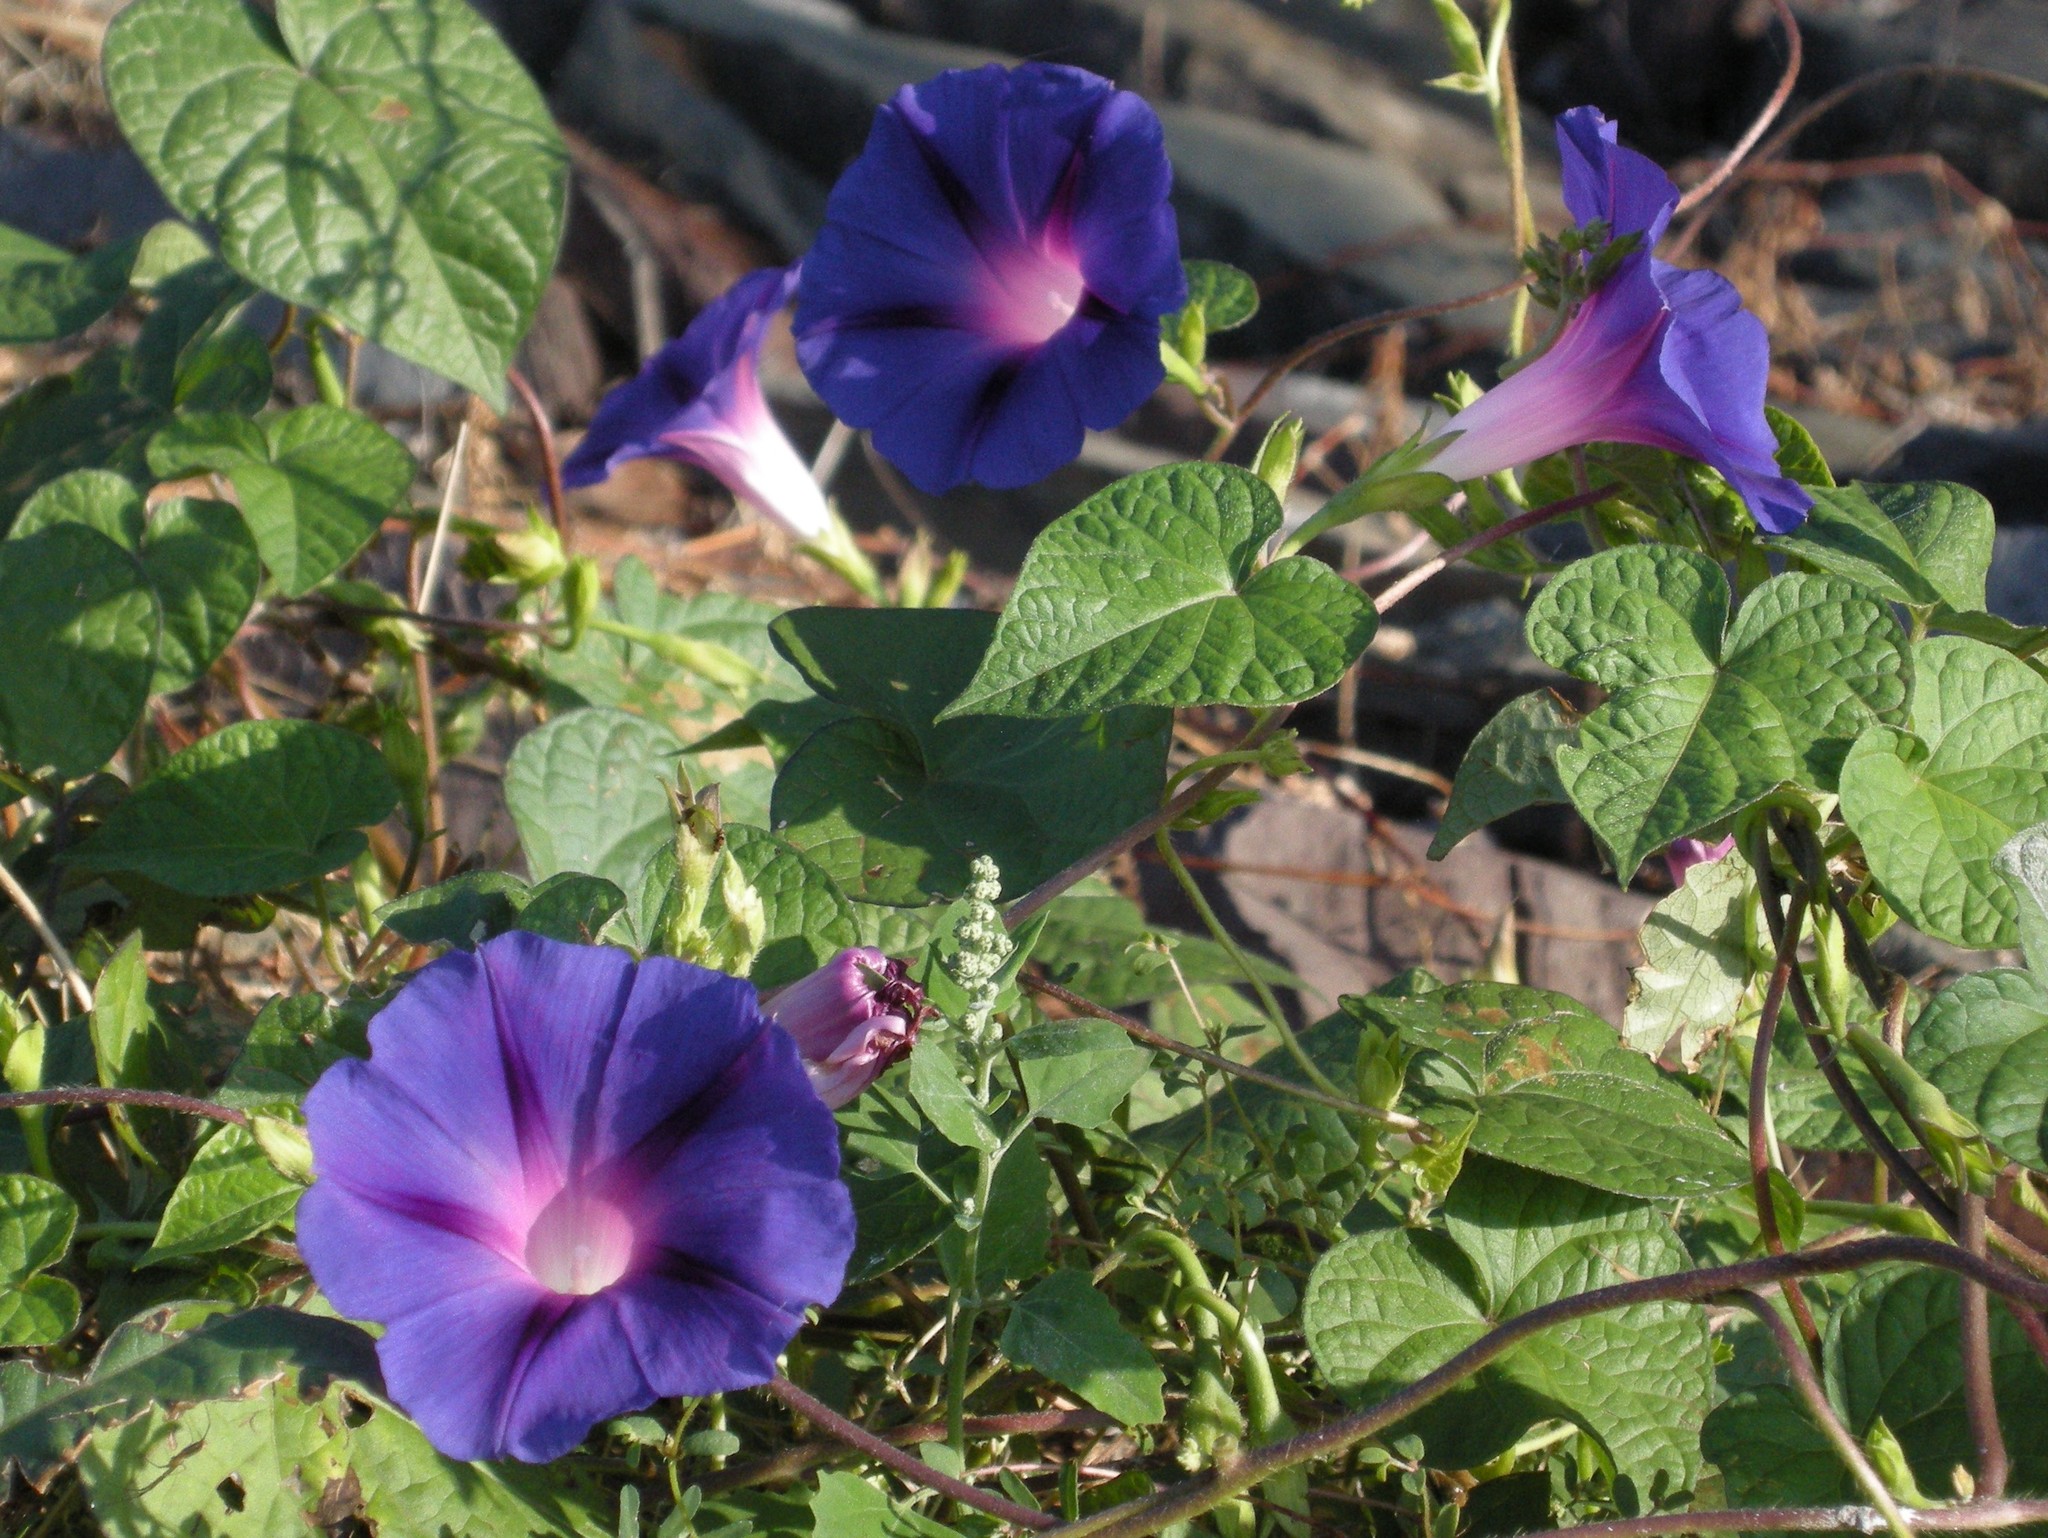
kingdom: Plantae
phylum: Tracheophyta
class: Magnoliopsida
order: Solanales
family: Convolvulaceae
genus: Ipomoea
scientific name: Ipomoea purpurea
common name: Common morning-glory
